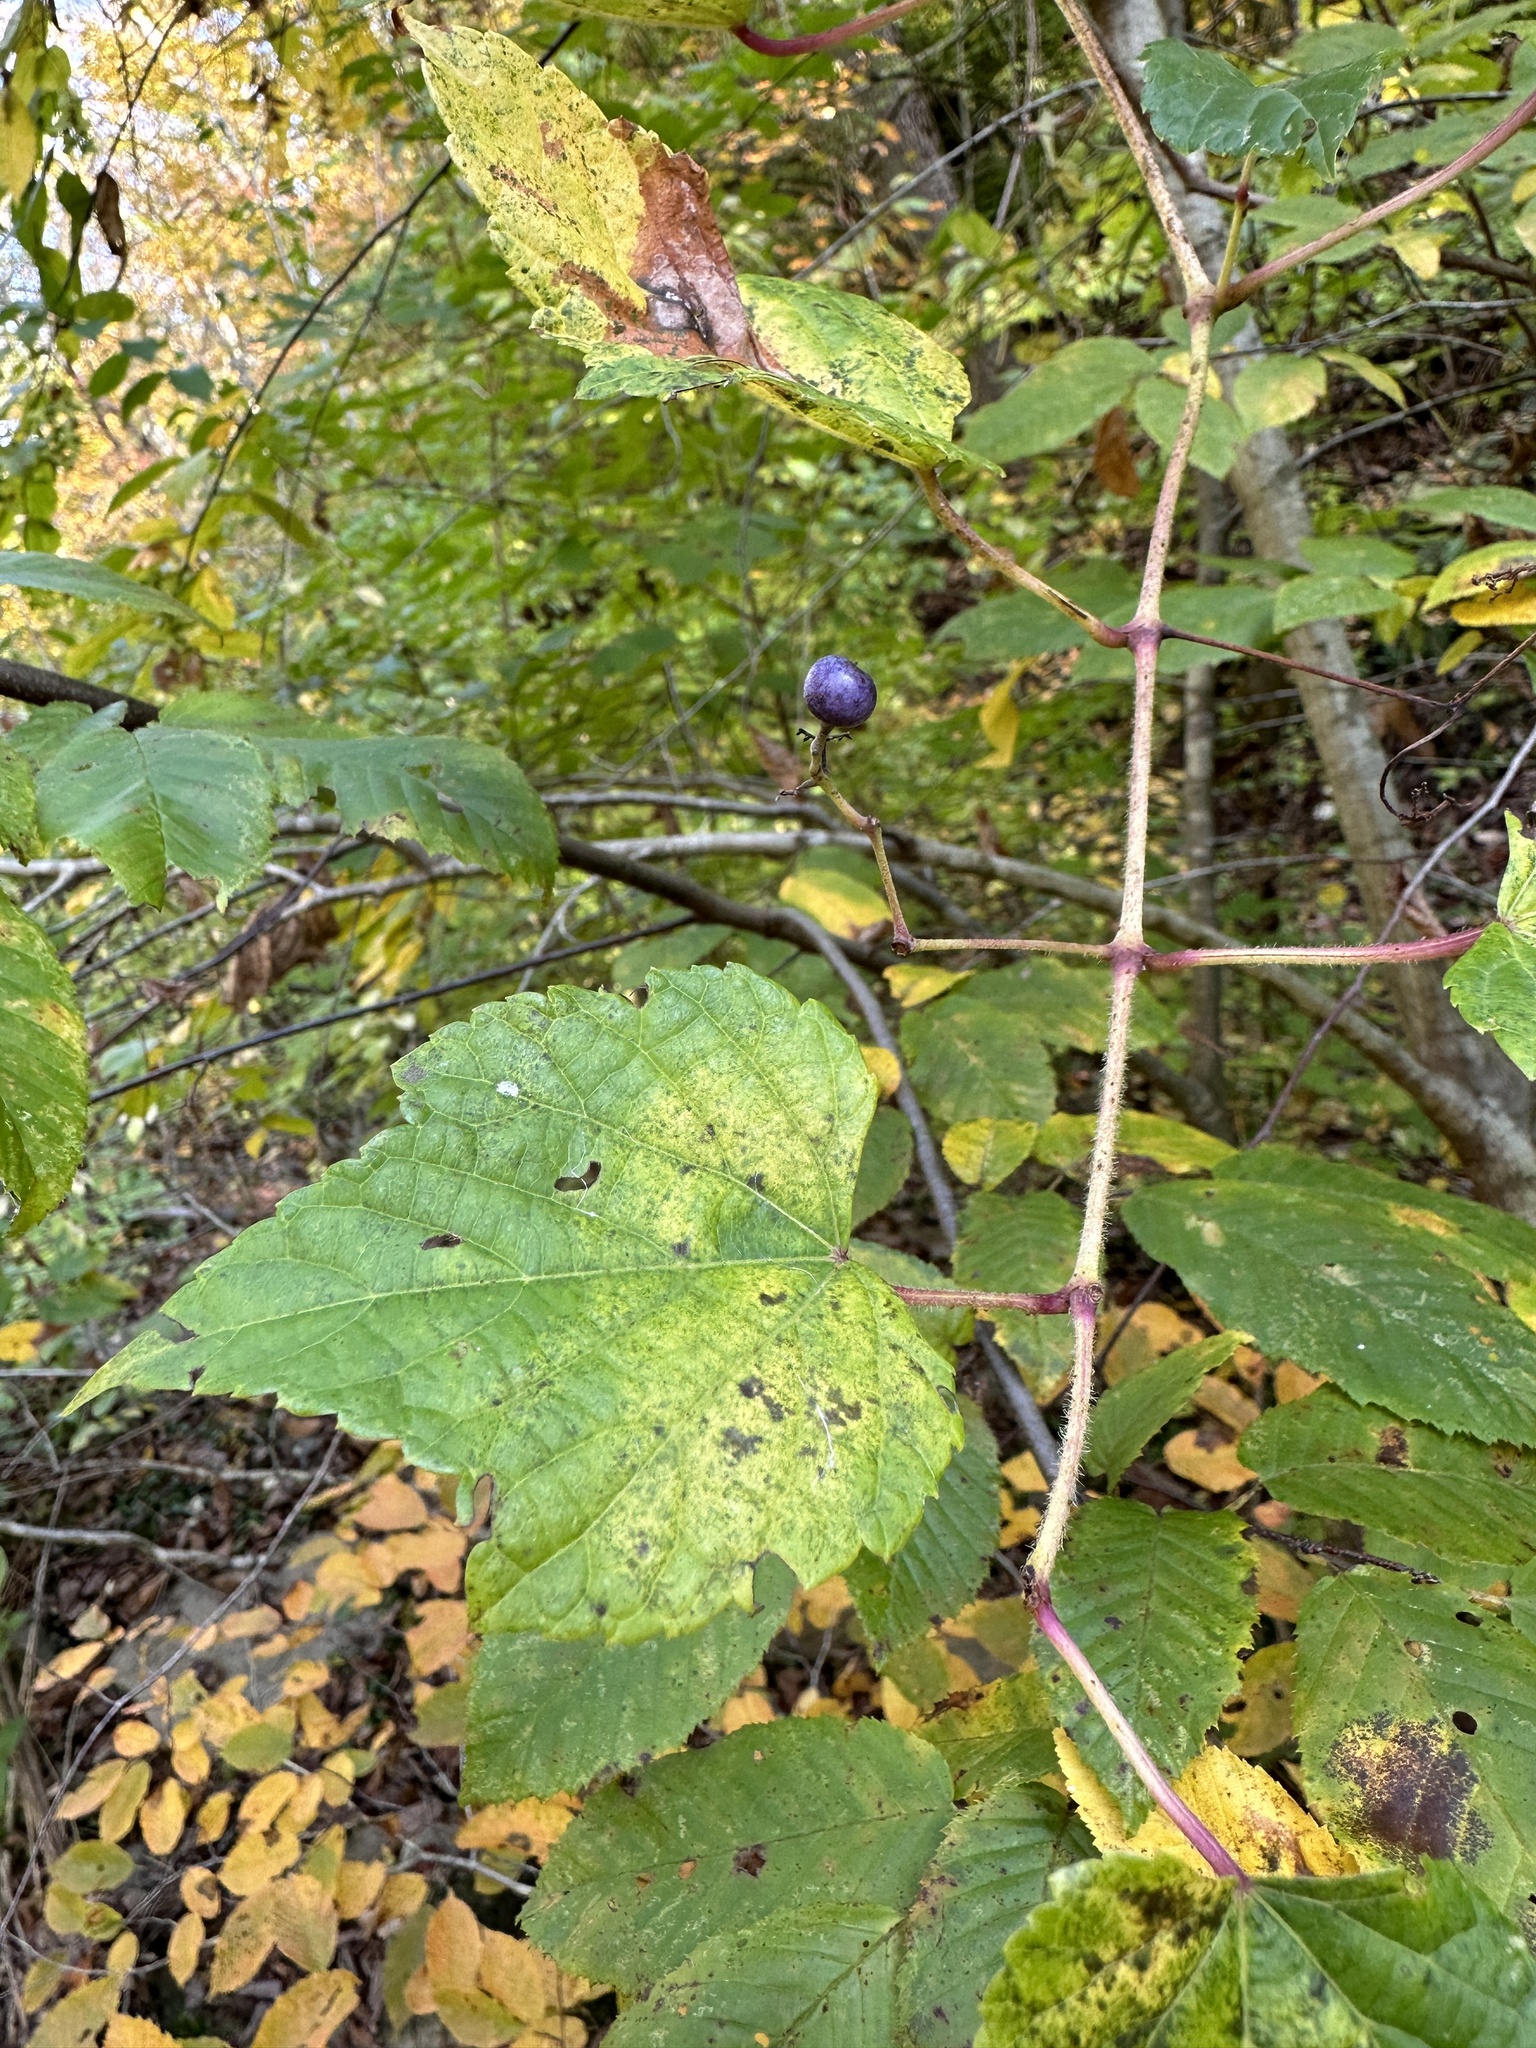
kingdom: Plantae
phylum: Tracheophyta
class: Magnoliopsida
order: Vitales
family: Vitaceae
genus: Ampelopsis
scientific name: Ampelopsis glandulosa
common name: Amur peppervine
